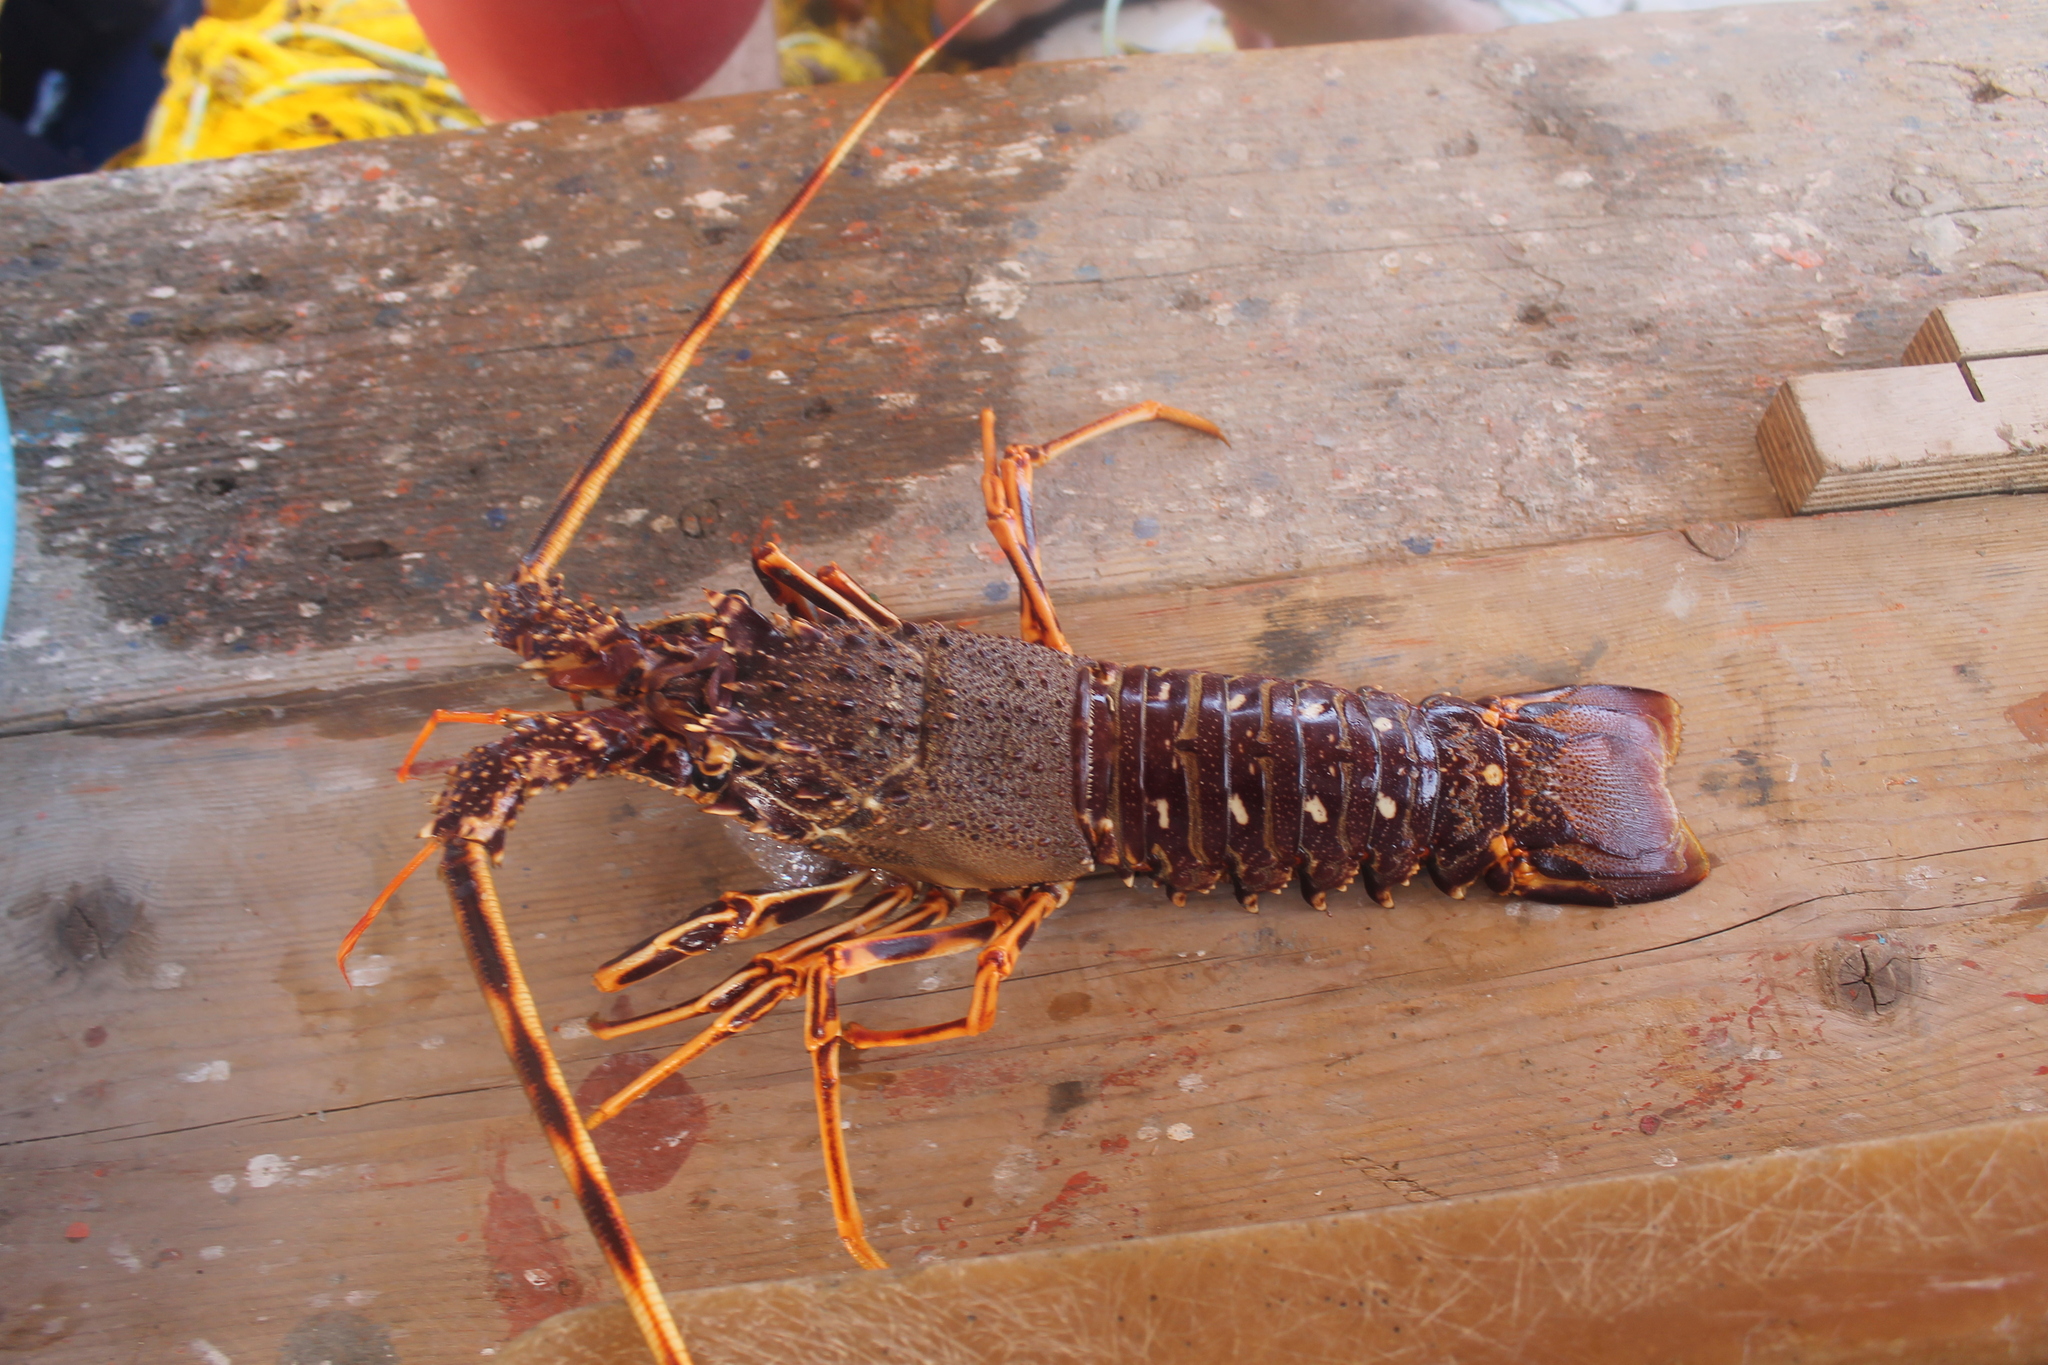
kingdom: Animalia
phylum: Arthropoda
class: Malacostraca
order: Decapoda
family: Palinuridae
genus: Palinurus
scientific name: Palinurus elephas
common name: European spiny lobster
